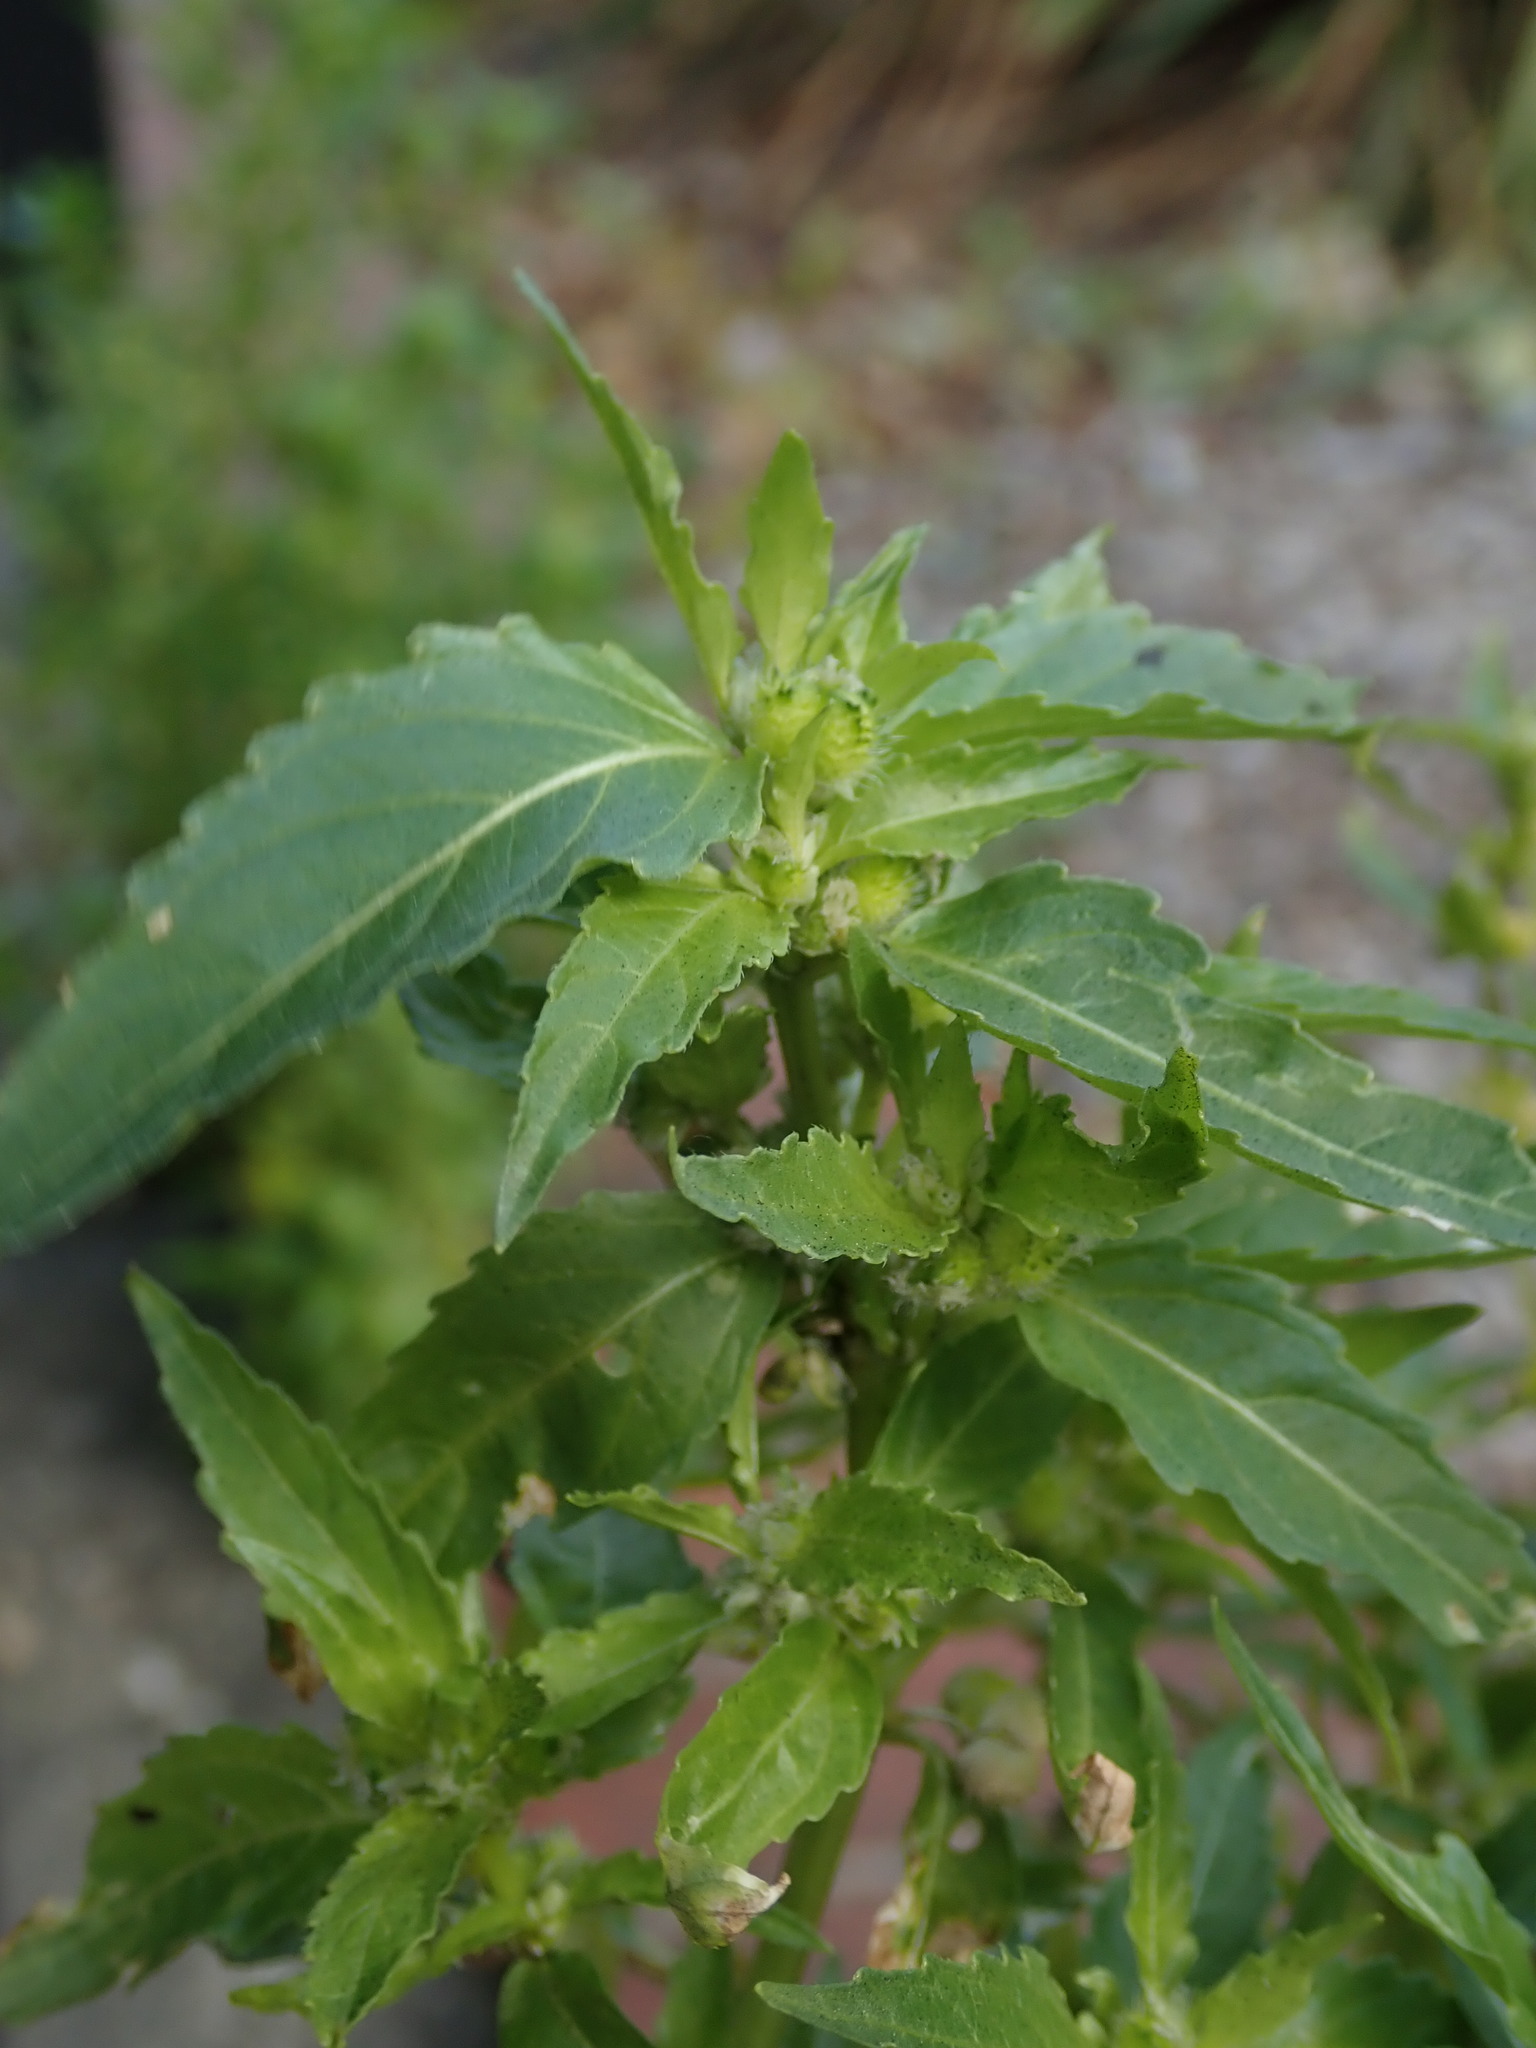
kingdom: Plantae
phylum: Tracheophyta
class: Magnoliopsida
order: Malpighiales
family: Euphorbiaceae
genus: Mercurialis
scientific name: Mercurialis annua
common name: Annual mercury
